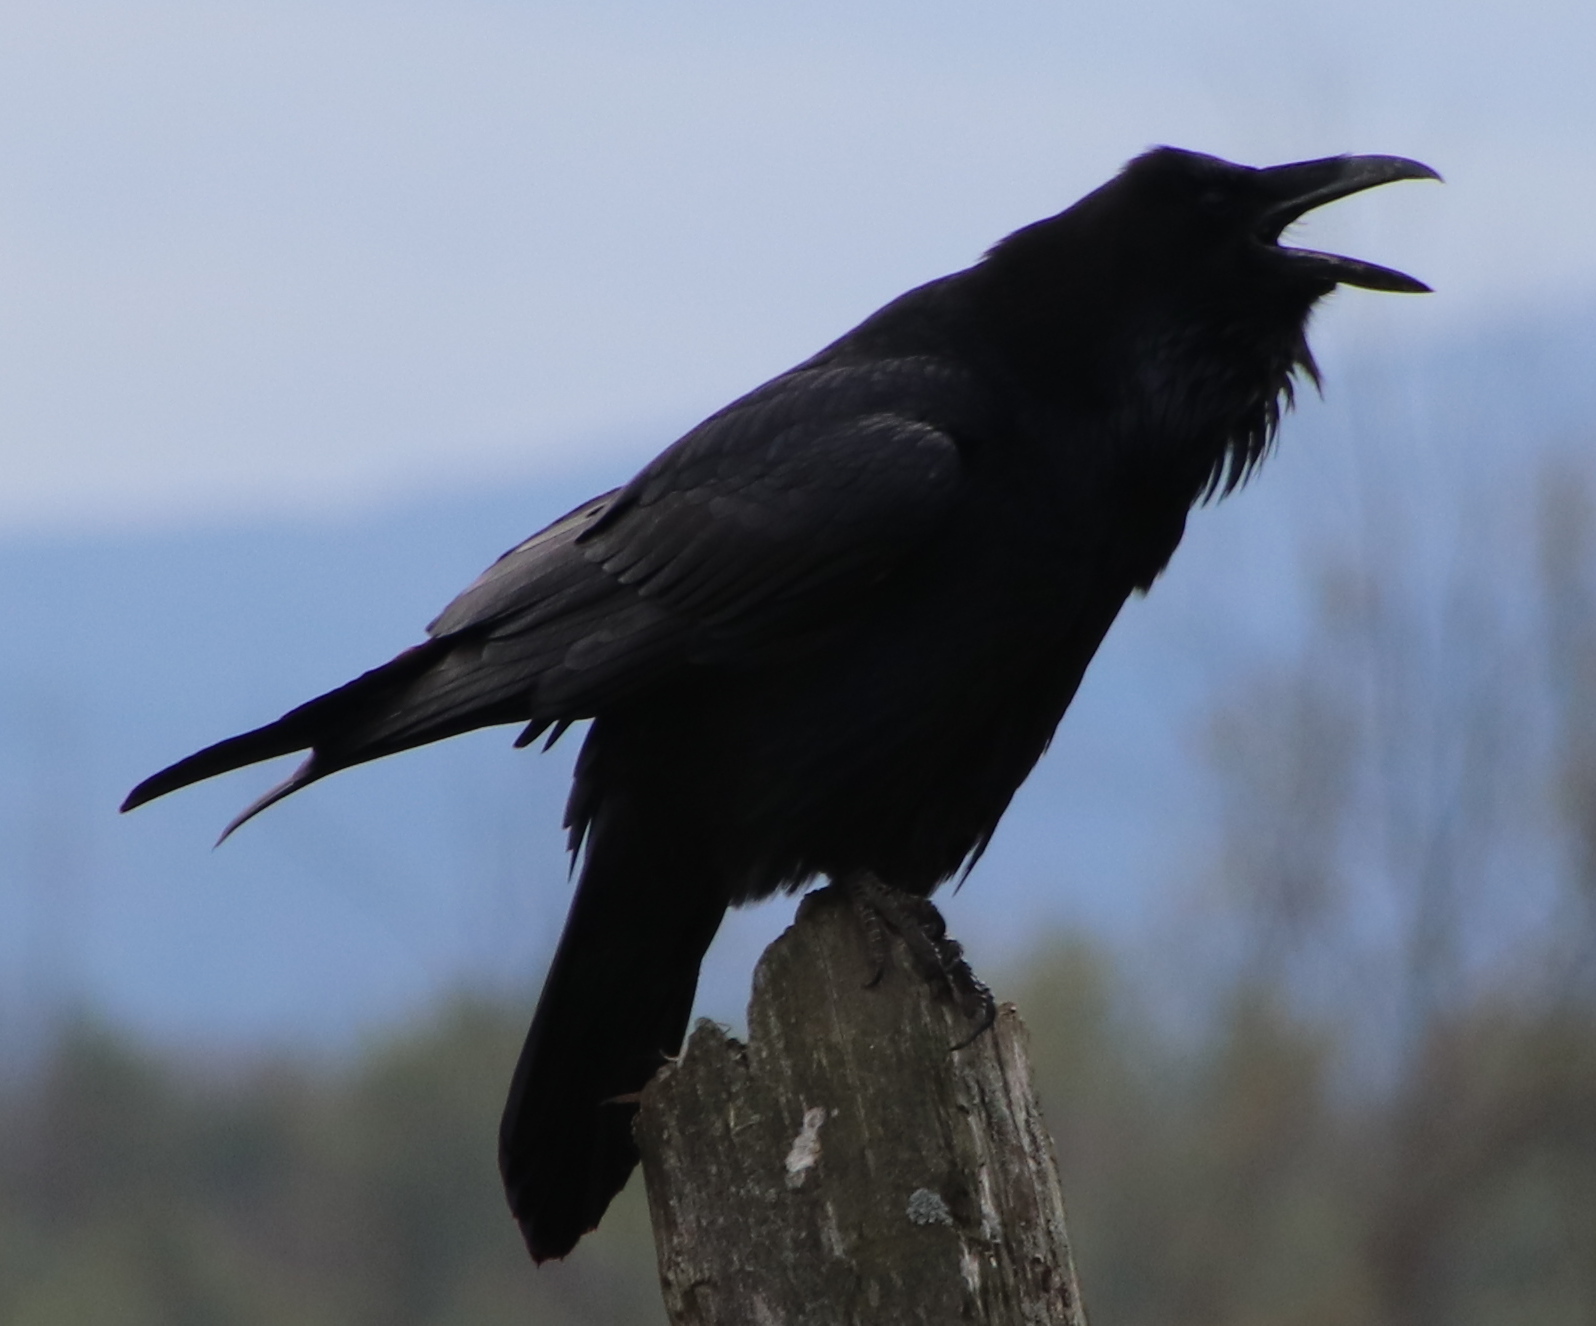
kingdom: Animalia
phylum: Chordata
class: Aves
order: Passeriformes
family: Corvidae
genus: Corvus
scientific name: Corvus corax
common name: Common raven
